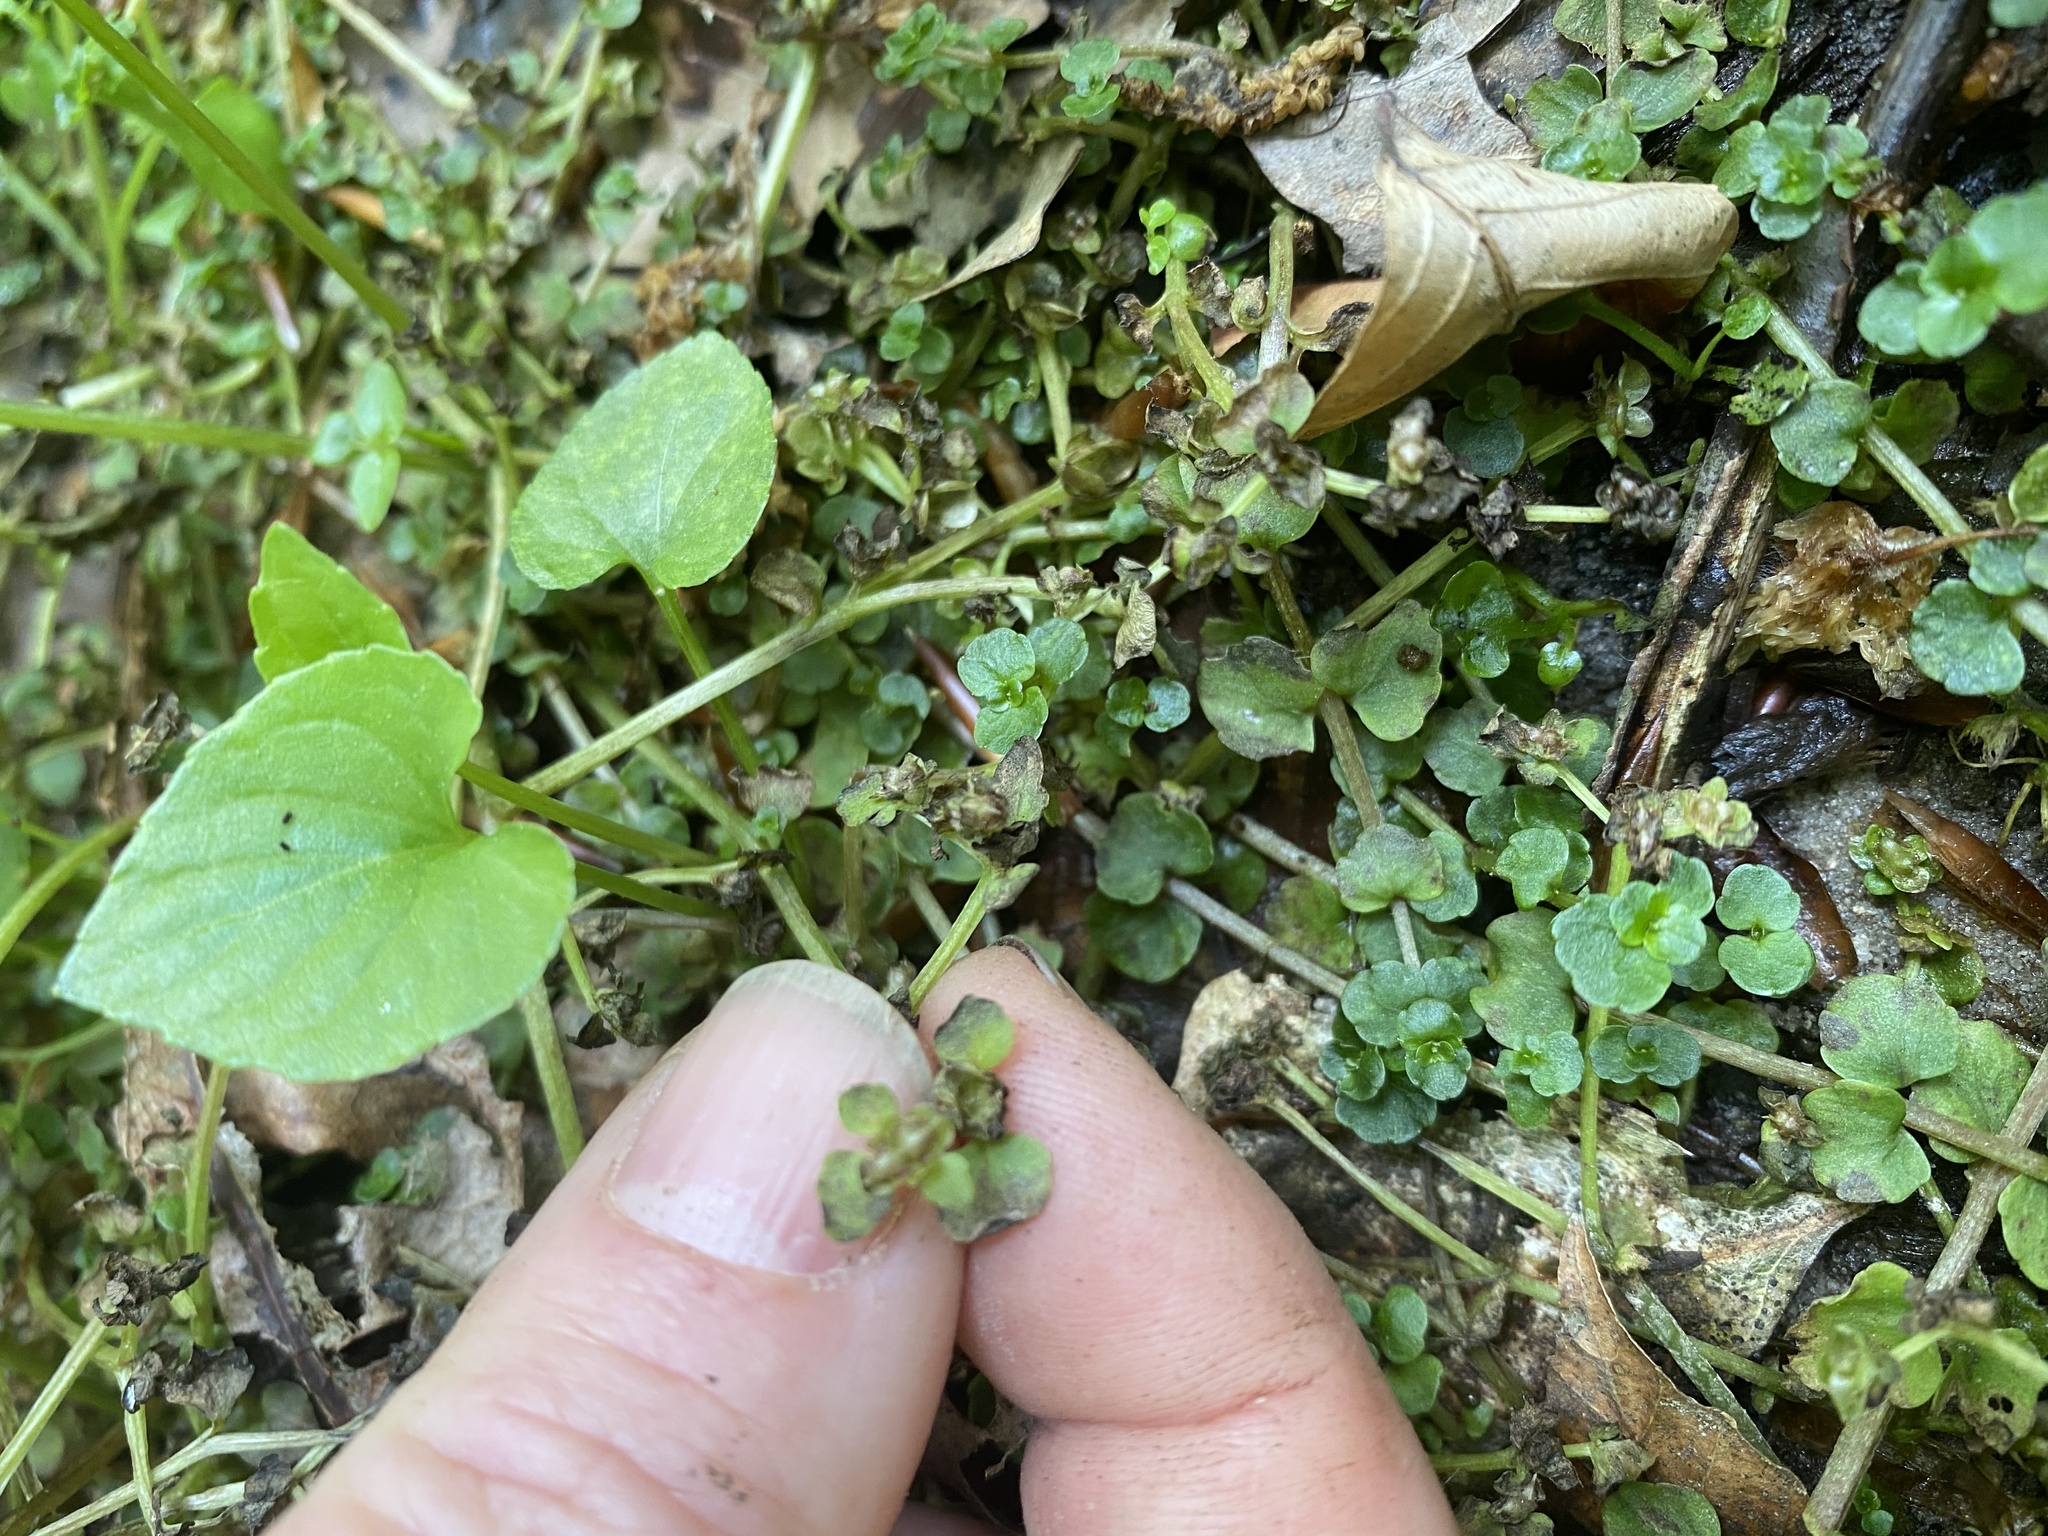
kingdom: Plantae
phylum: Tracheophyta
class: Magnoliopsida
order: Saxifragales
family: Saxifragaceae
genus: Chrysosplenium
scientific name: Chrysosplenium americanum
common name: American golden-saxifrage
